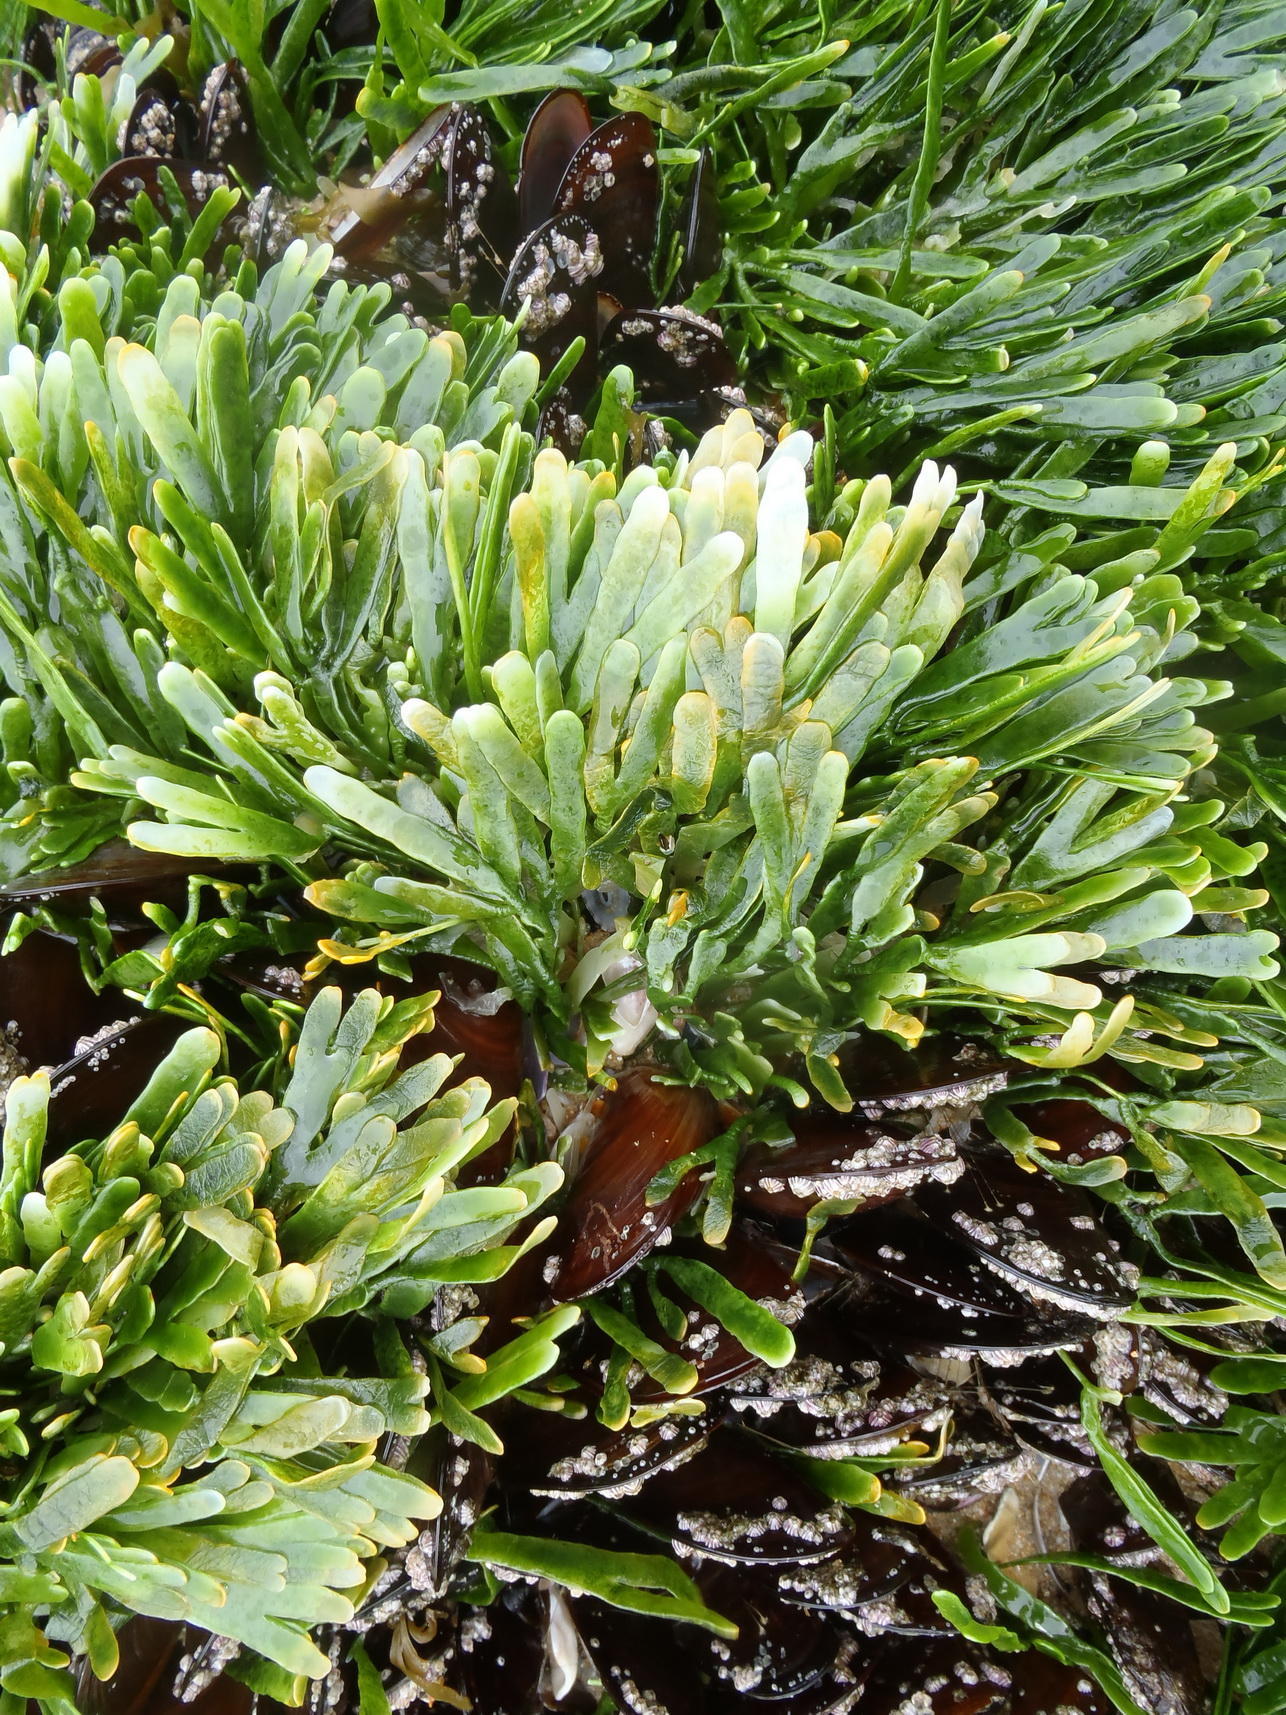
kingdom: Plantae
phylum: Chlorophyta
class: Ulvophyceae
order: Bryopsidales
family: Caulerpaceae
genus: Caulerpa
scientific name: Caulerpa filiformis
